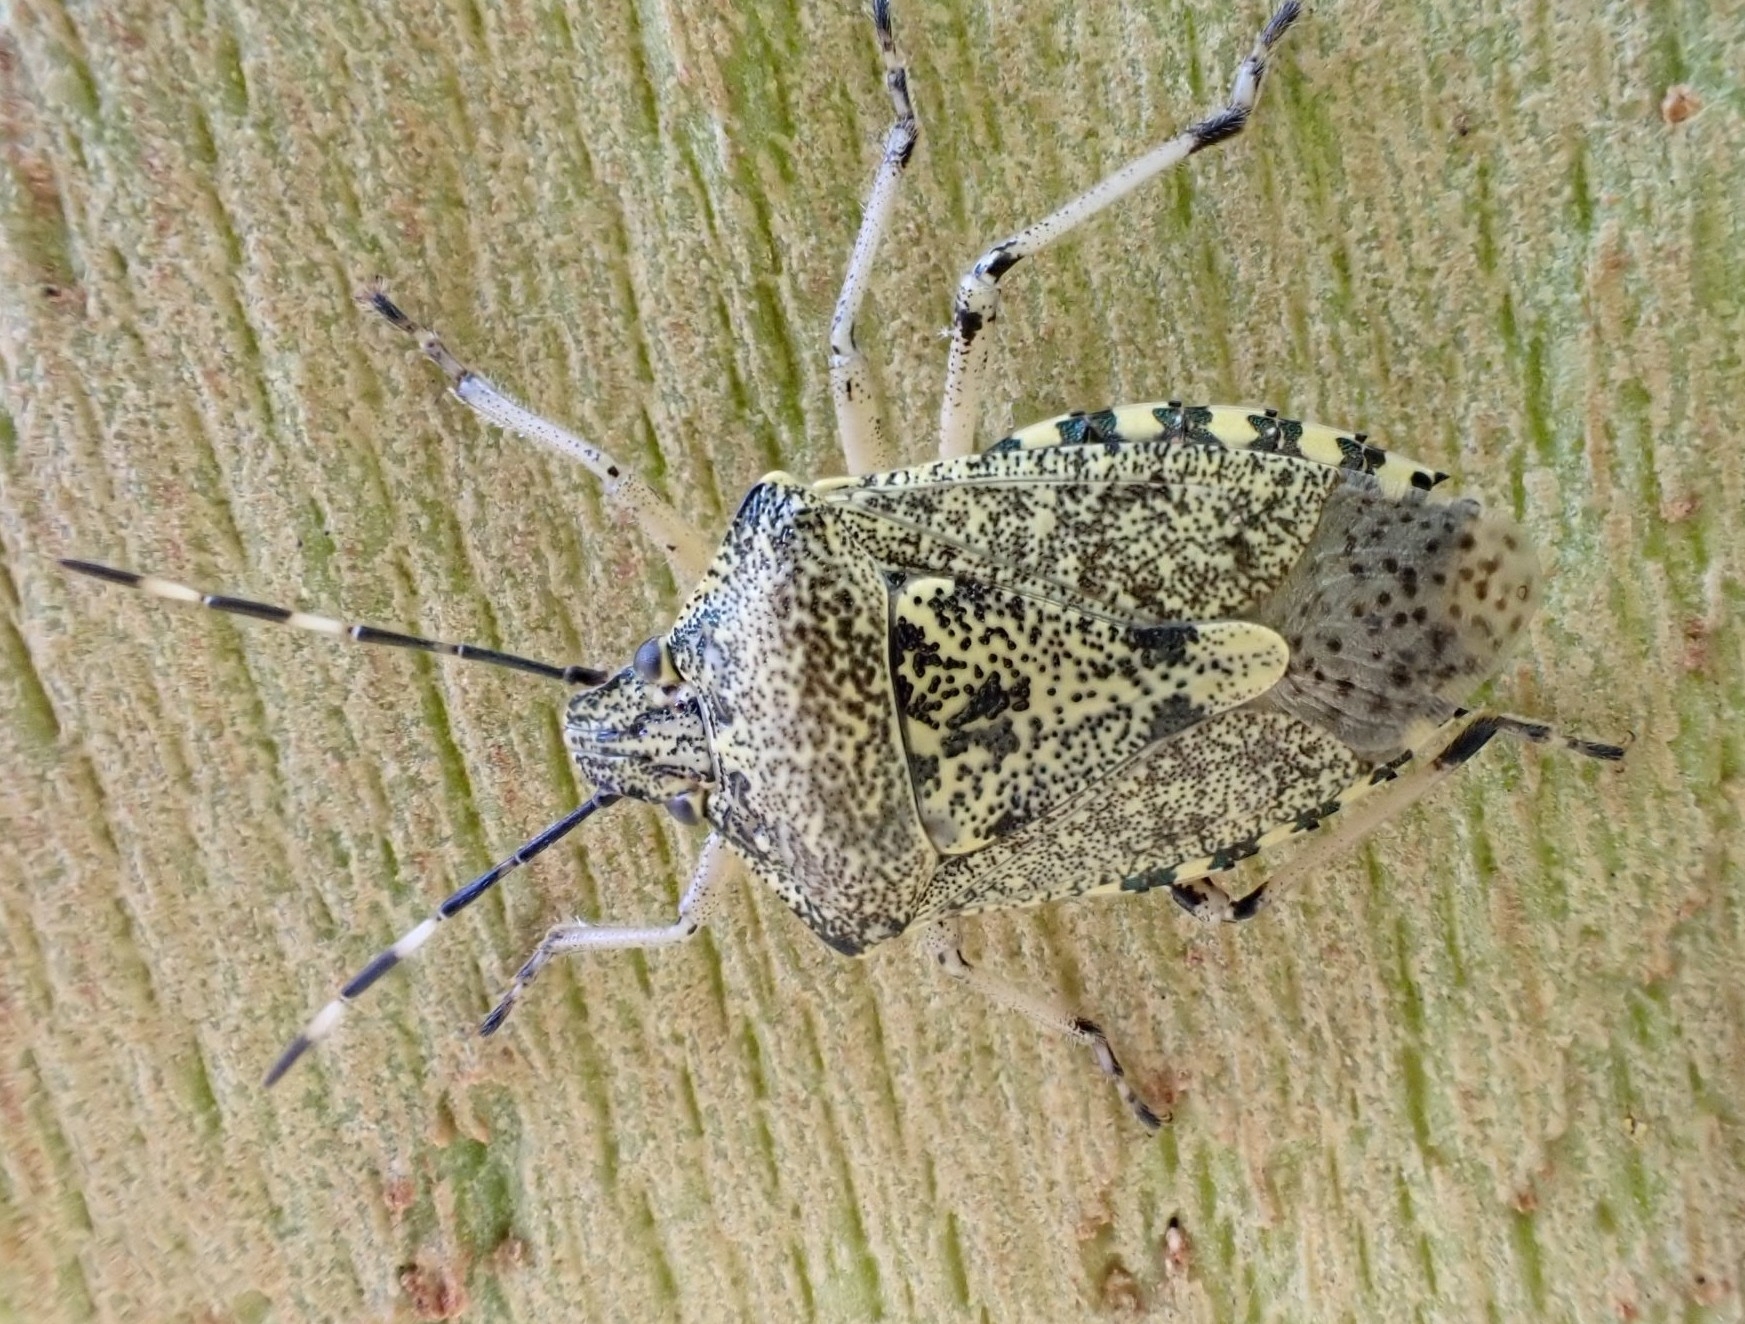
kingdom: Animalia
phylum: Arthropoda
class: Insecta
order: Hemiptera
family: Pentatomidae
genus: Rhaphigaster
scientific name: Rhaphigaster nebulosa
